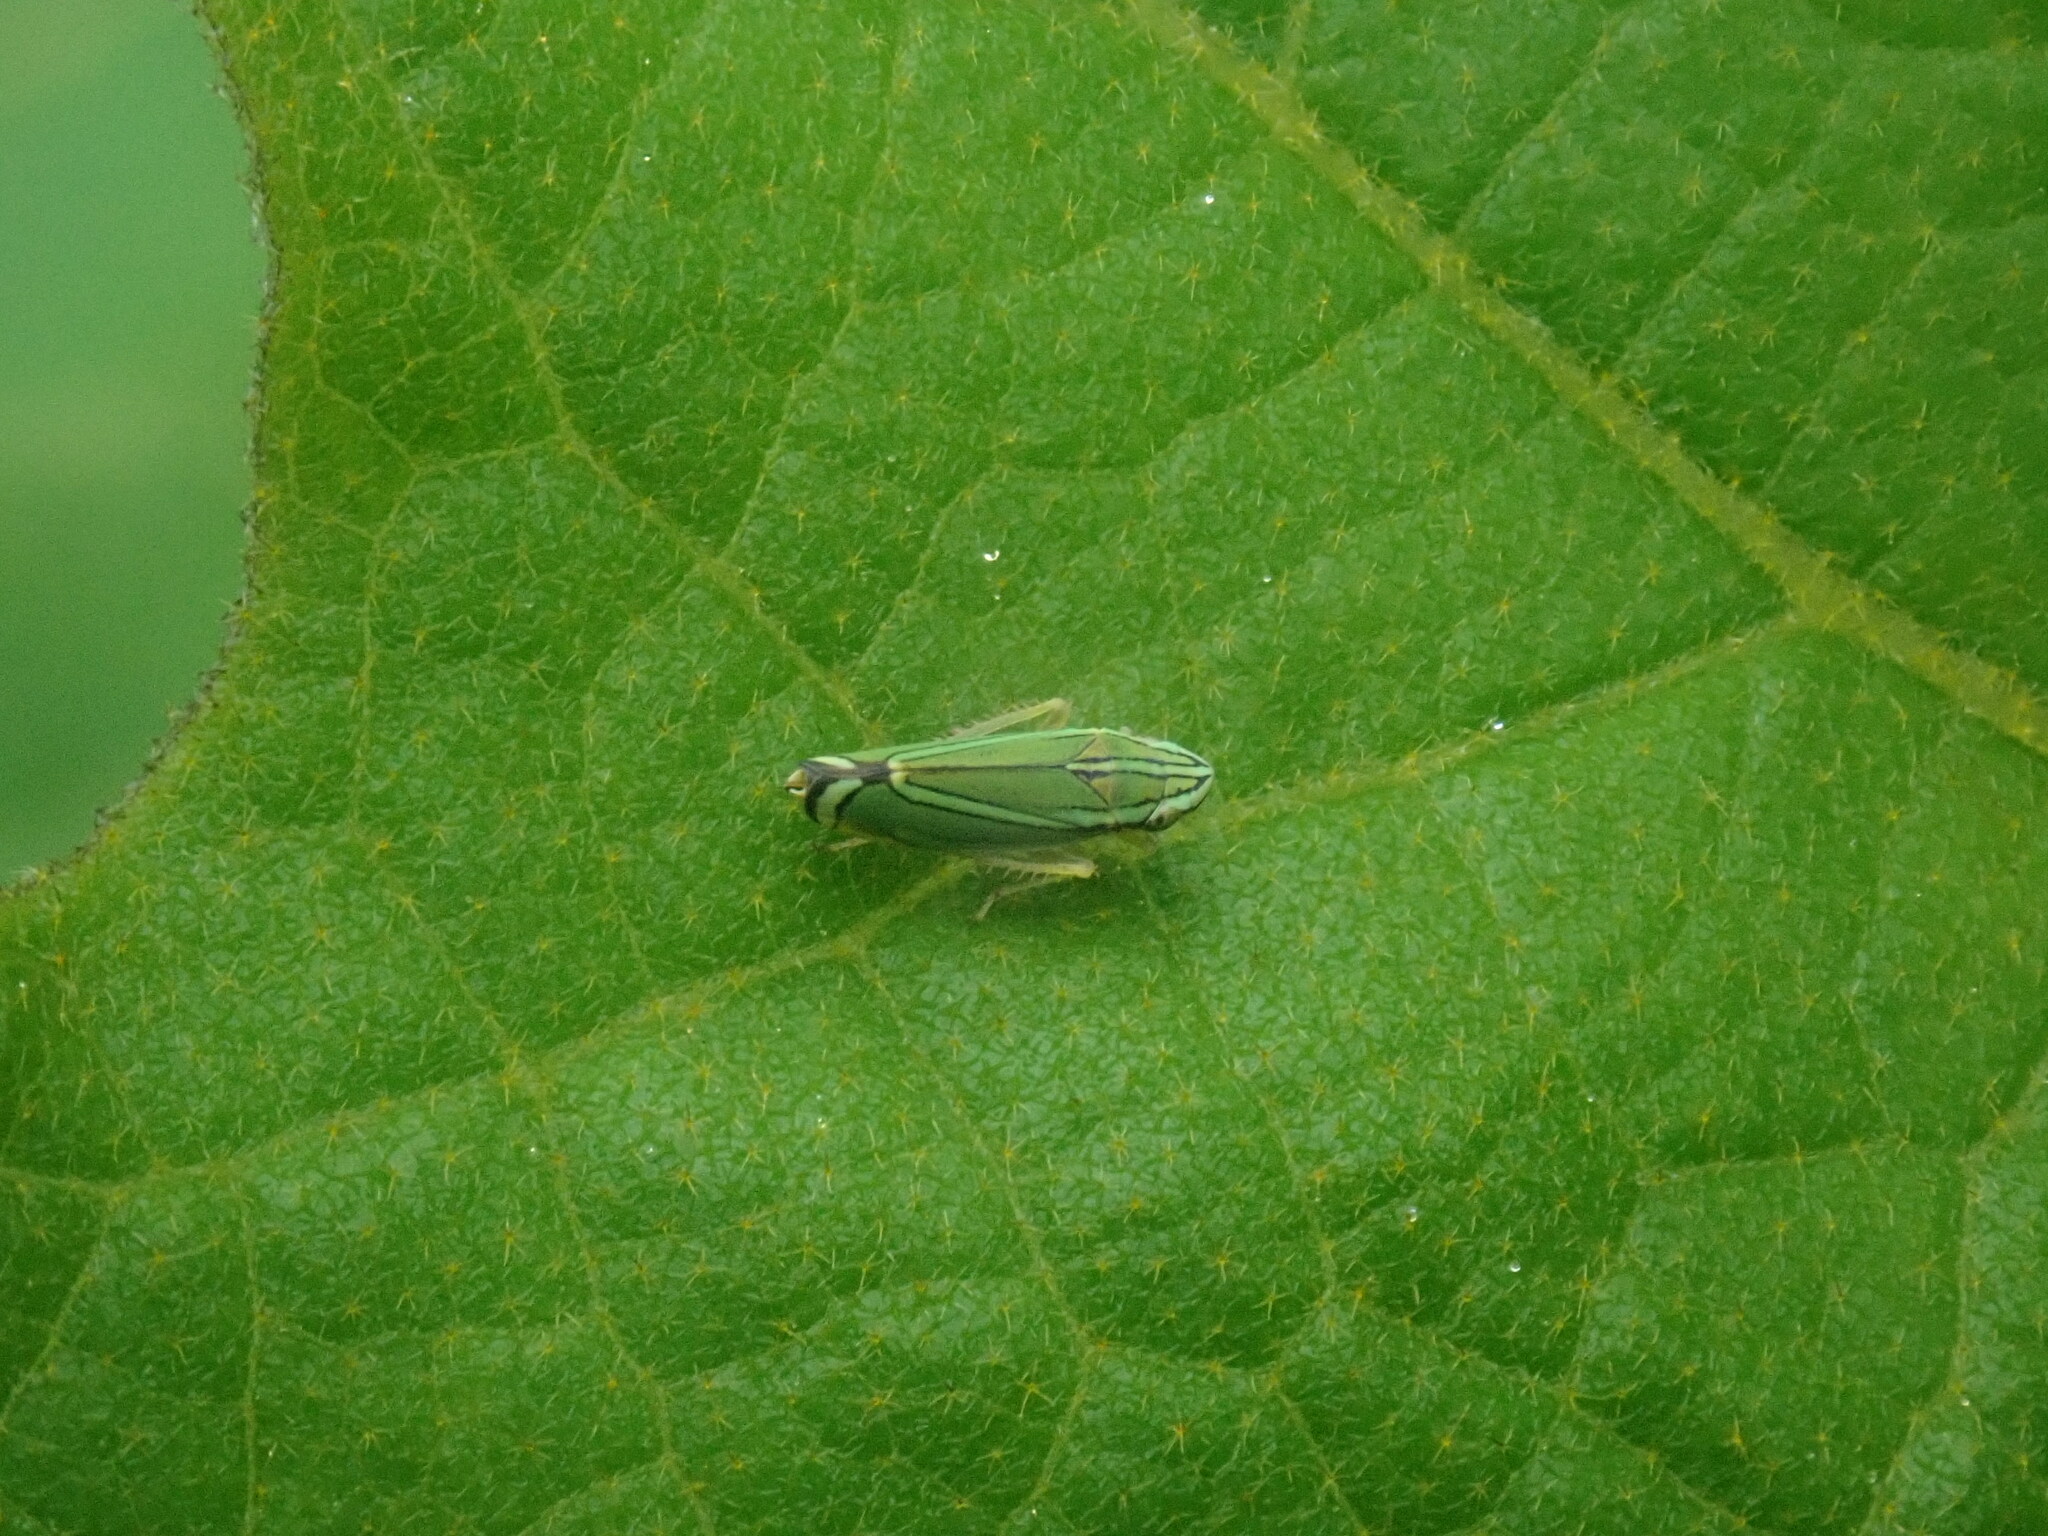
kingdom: Animalia
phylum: Arthropoda
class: Insecta
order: Hemiptera
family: Cicadellidae
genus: Isogonalia
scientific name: Isogonalia sexlineata
